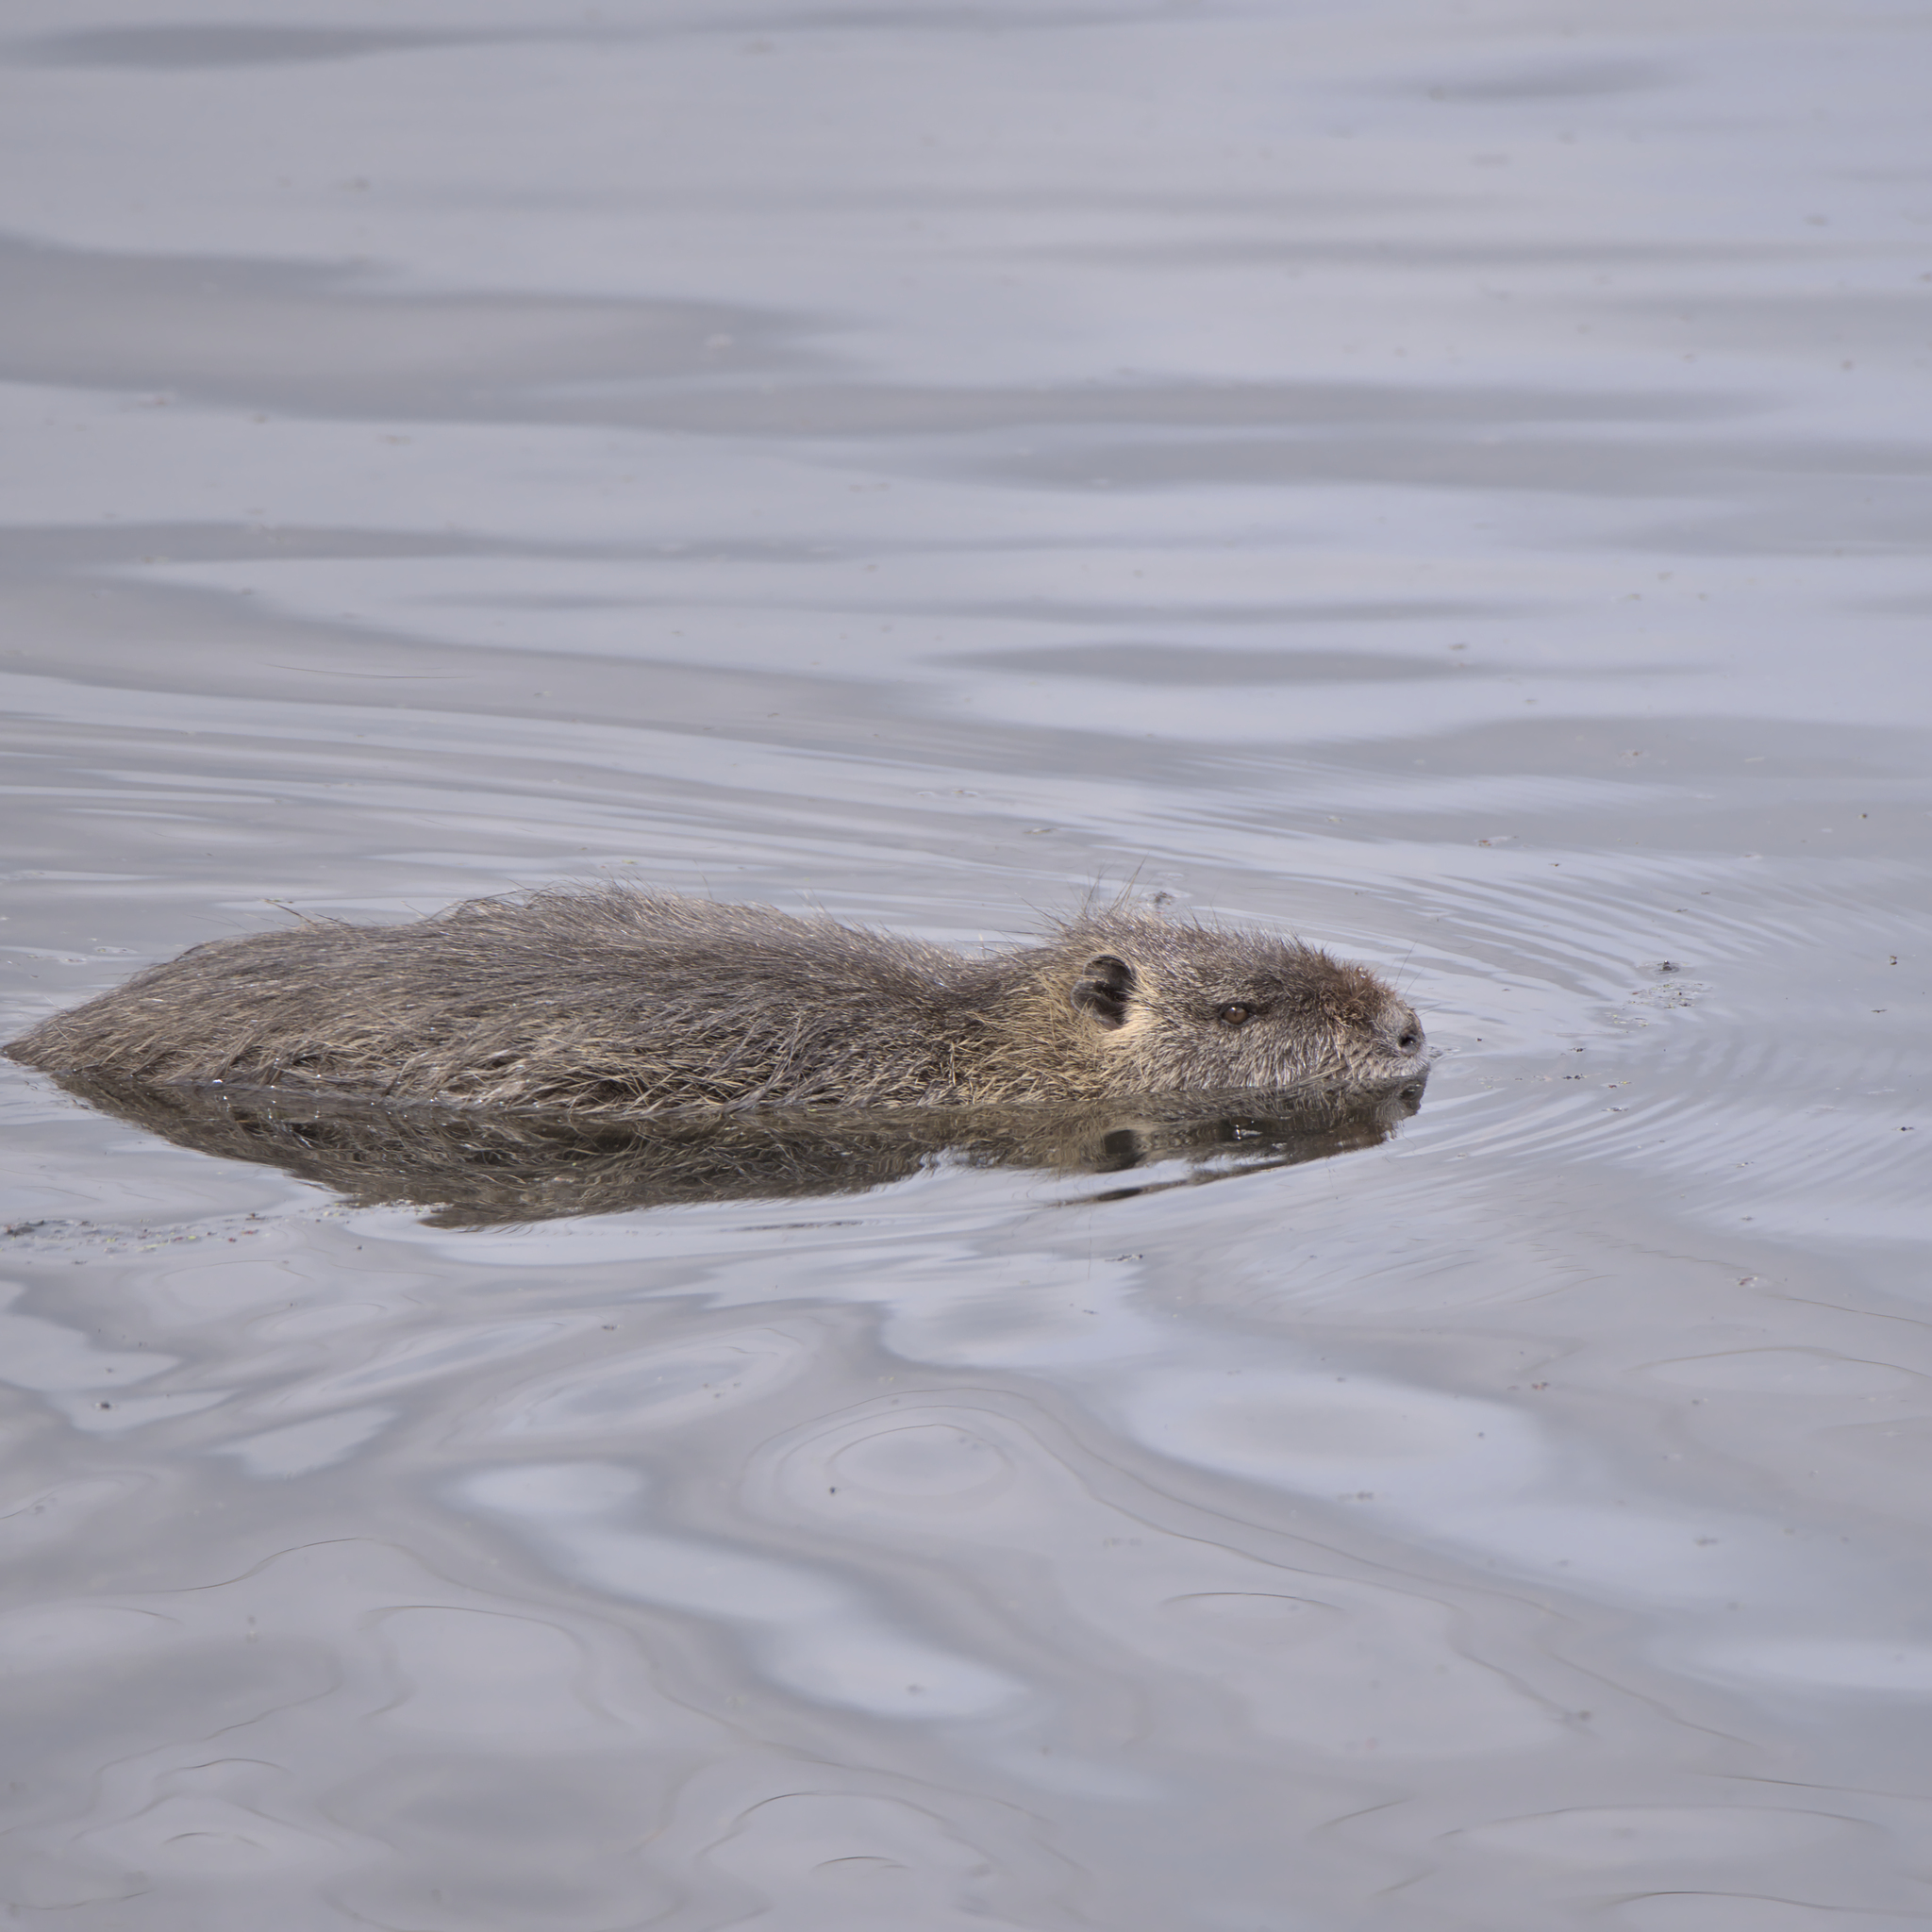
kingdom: Animalia
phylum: Chordata
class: Mammalia
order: Rodentia
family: Myocastoridae
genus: Myocastor
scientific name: Myocastor coypus
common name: Coypu
